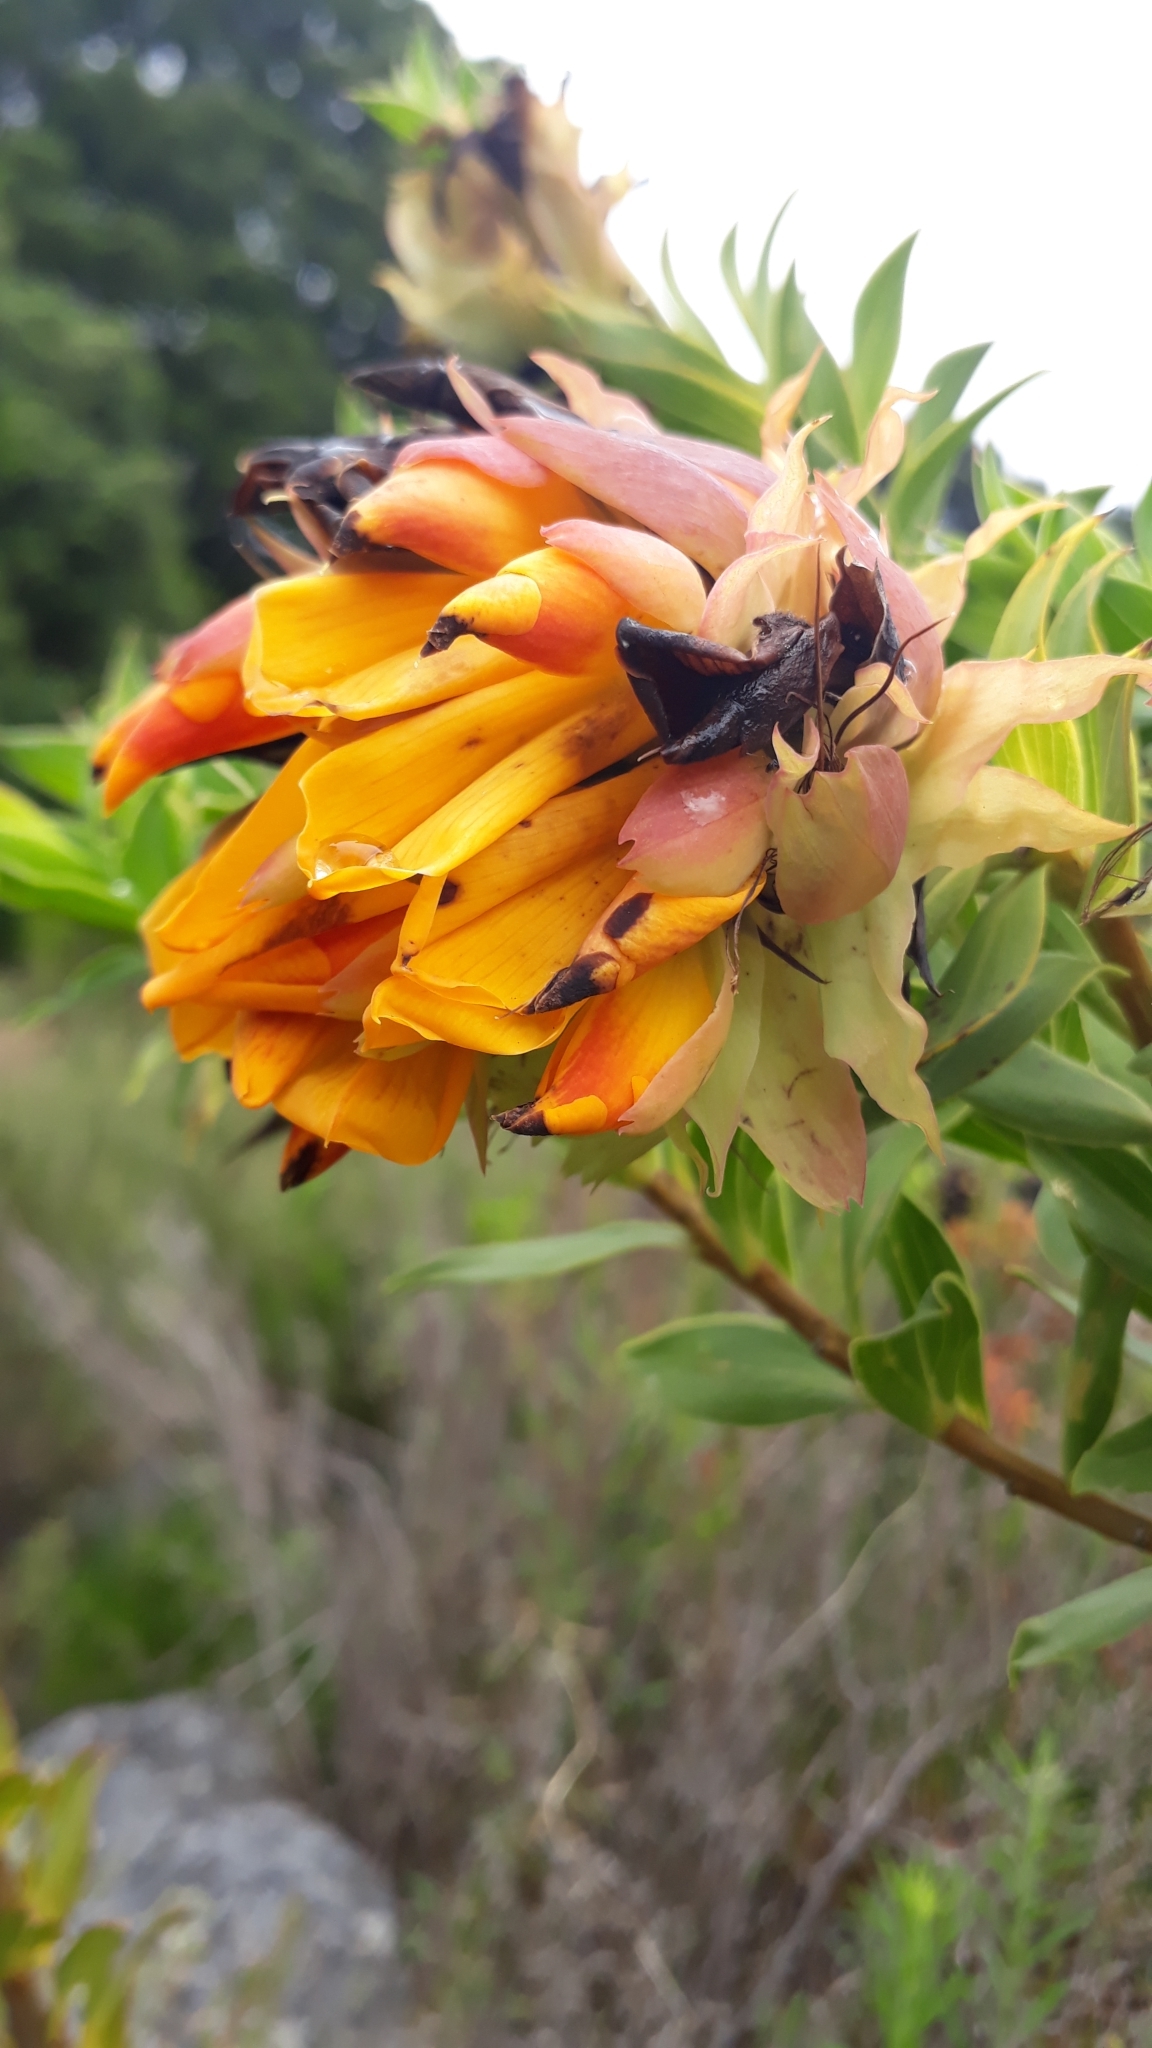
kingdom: Plantae
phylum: Tracheophyta
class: Magnoliopsida
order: Fabales
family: Fabaceae
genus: Liparia
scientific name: Liparia splendens
